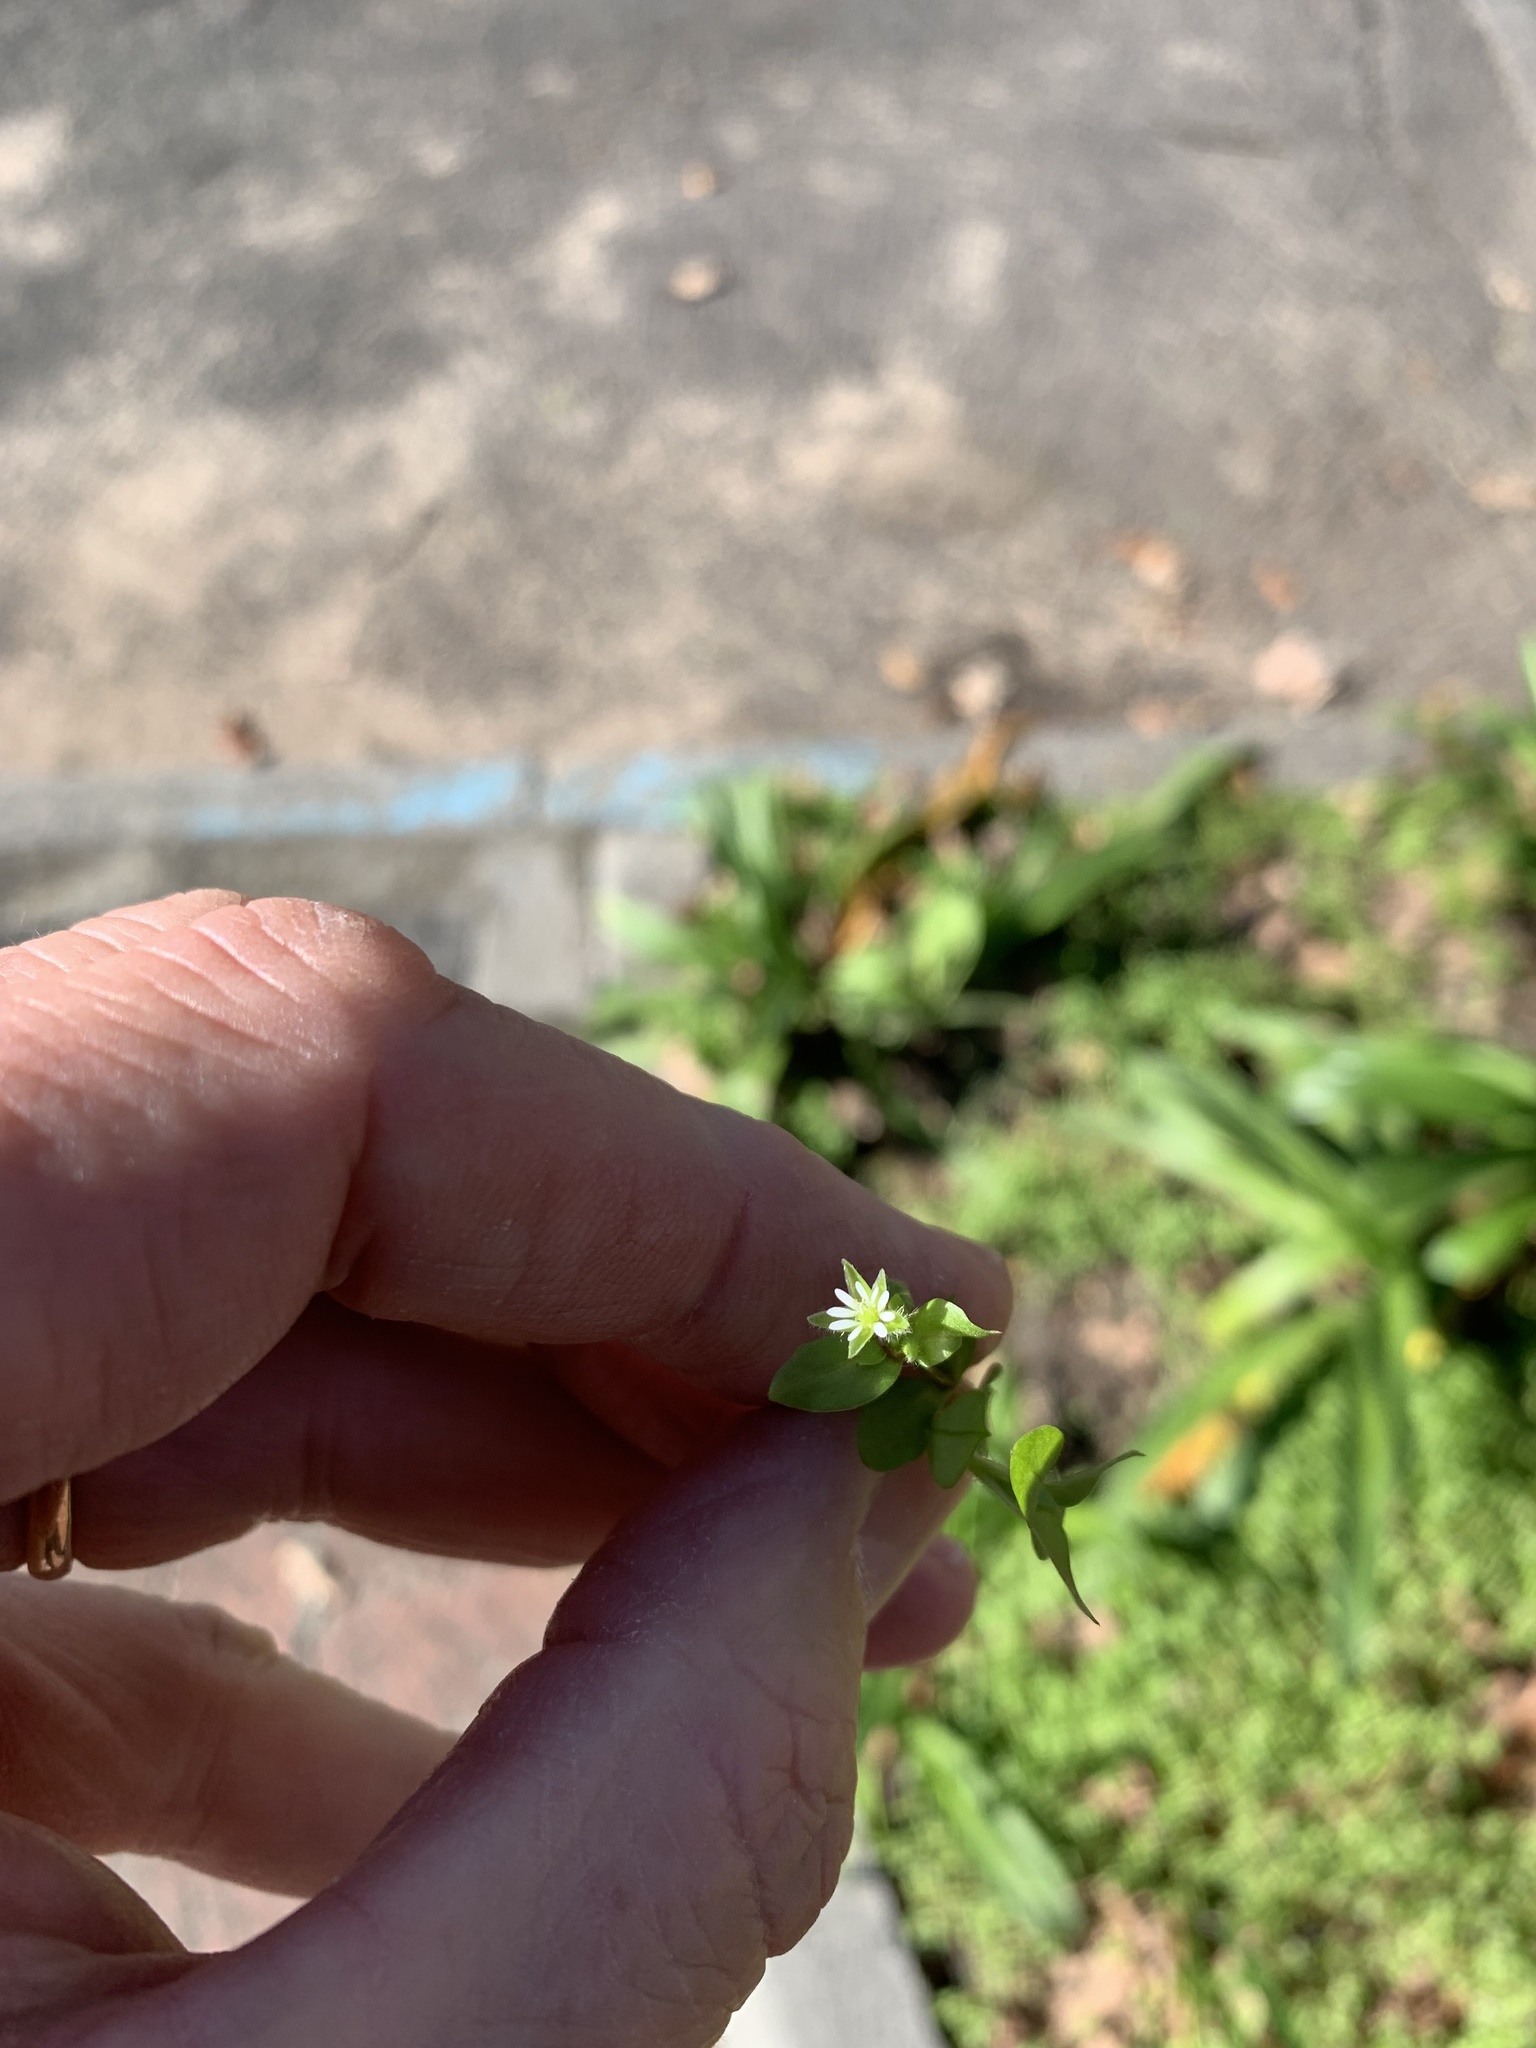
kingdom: Plantae
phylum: Tracheophyta
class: Magnoliopsida
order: Caryophyllales
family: Caryophyllaceae
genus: Stellaria
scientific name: Stellaria media
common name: Common chickweed
